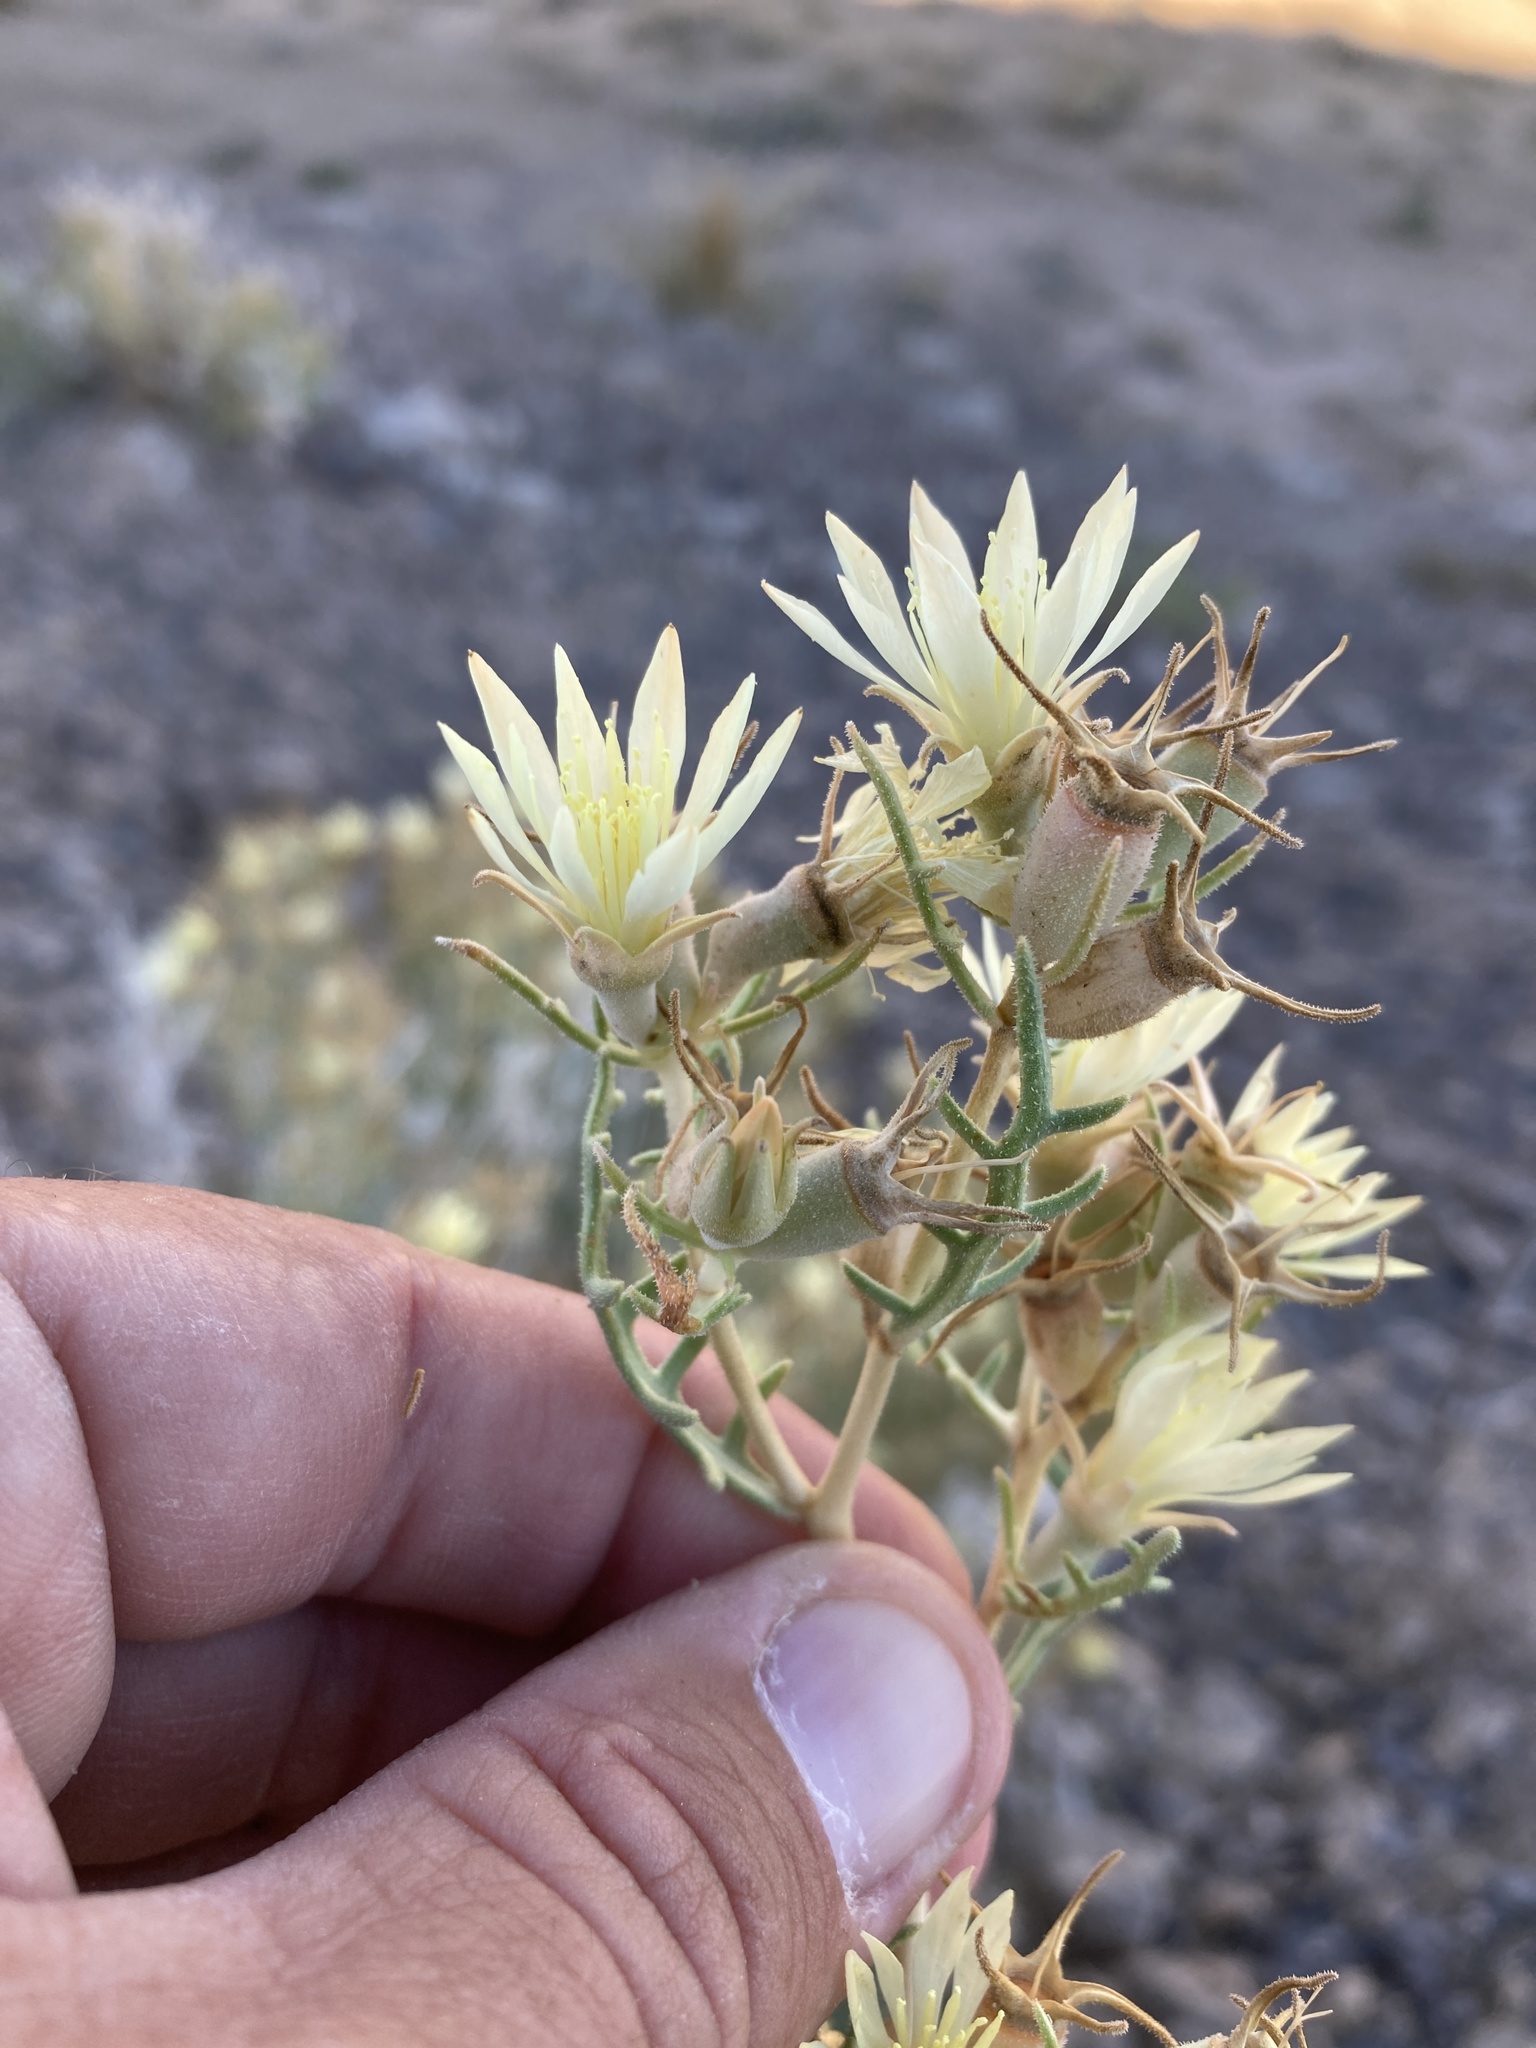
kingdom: Plantae
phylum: Tracheophyta
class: Magnoliopsida
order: Cornales
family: Loasaceae
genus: Mentzelia
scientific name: Mentzelia humilis
